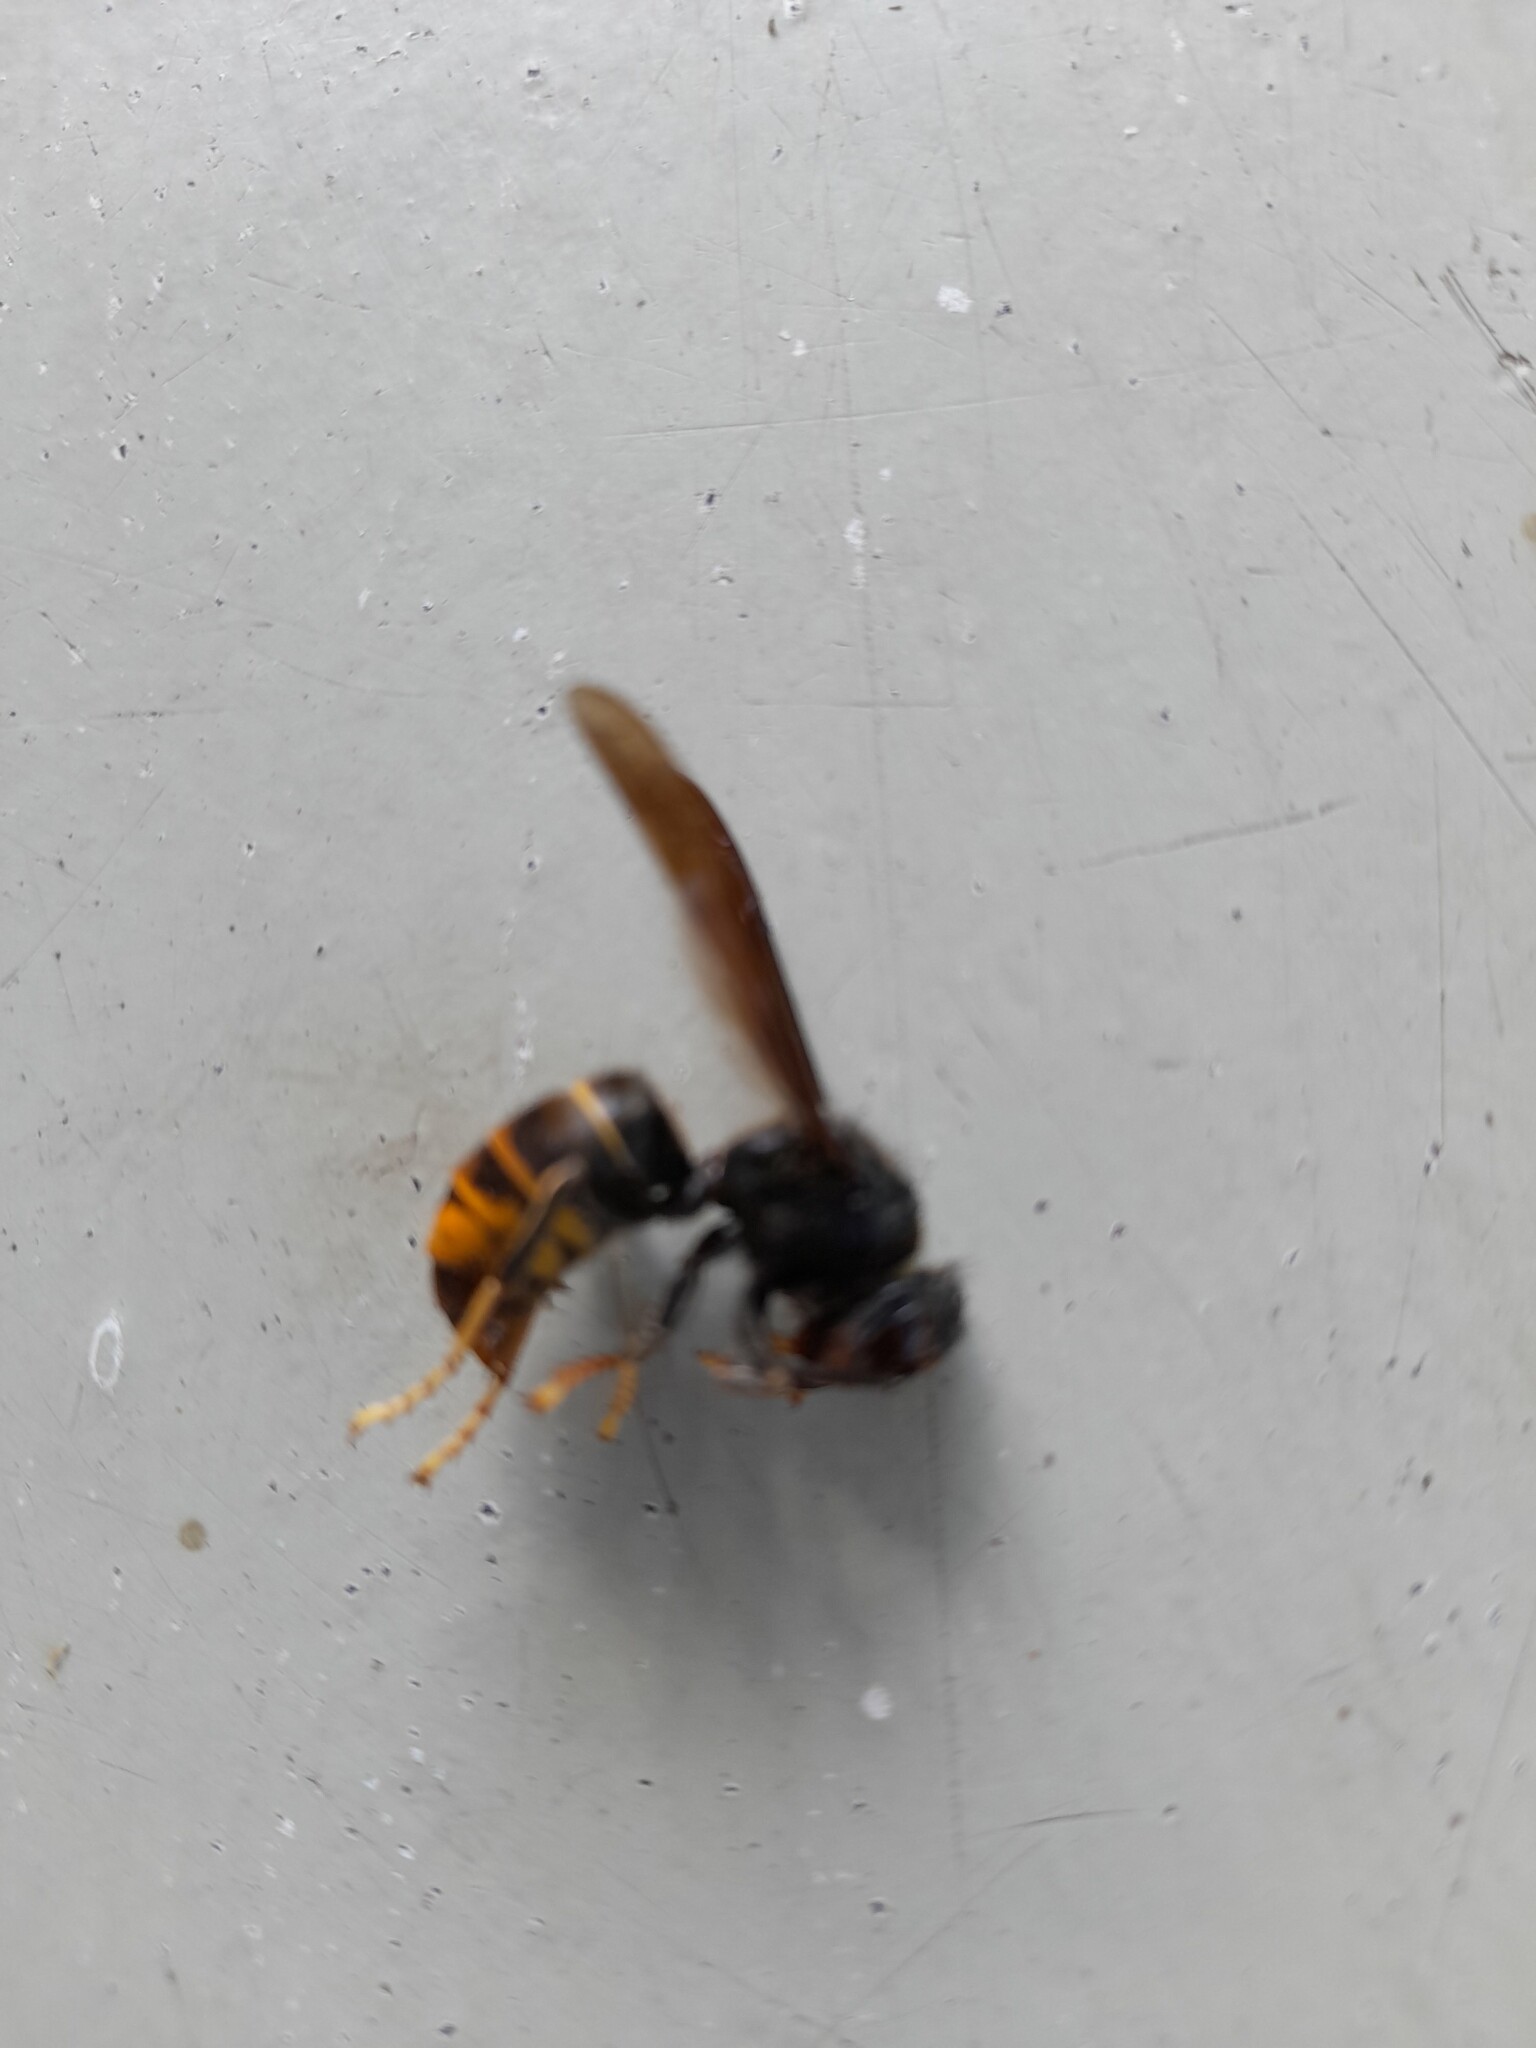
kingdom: Animalia
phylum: Arthropoda
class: Insecta
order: Hymenoptera
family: Vespidae
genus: Vespa
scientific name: Vespa velutina
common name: Asian hornet
